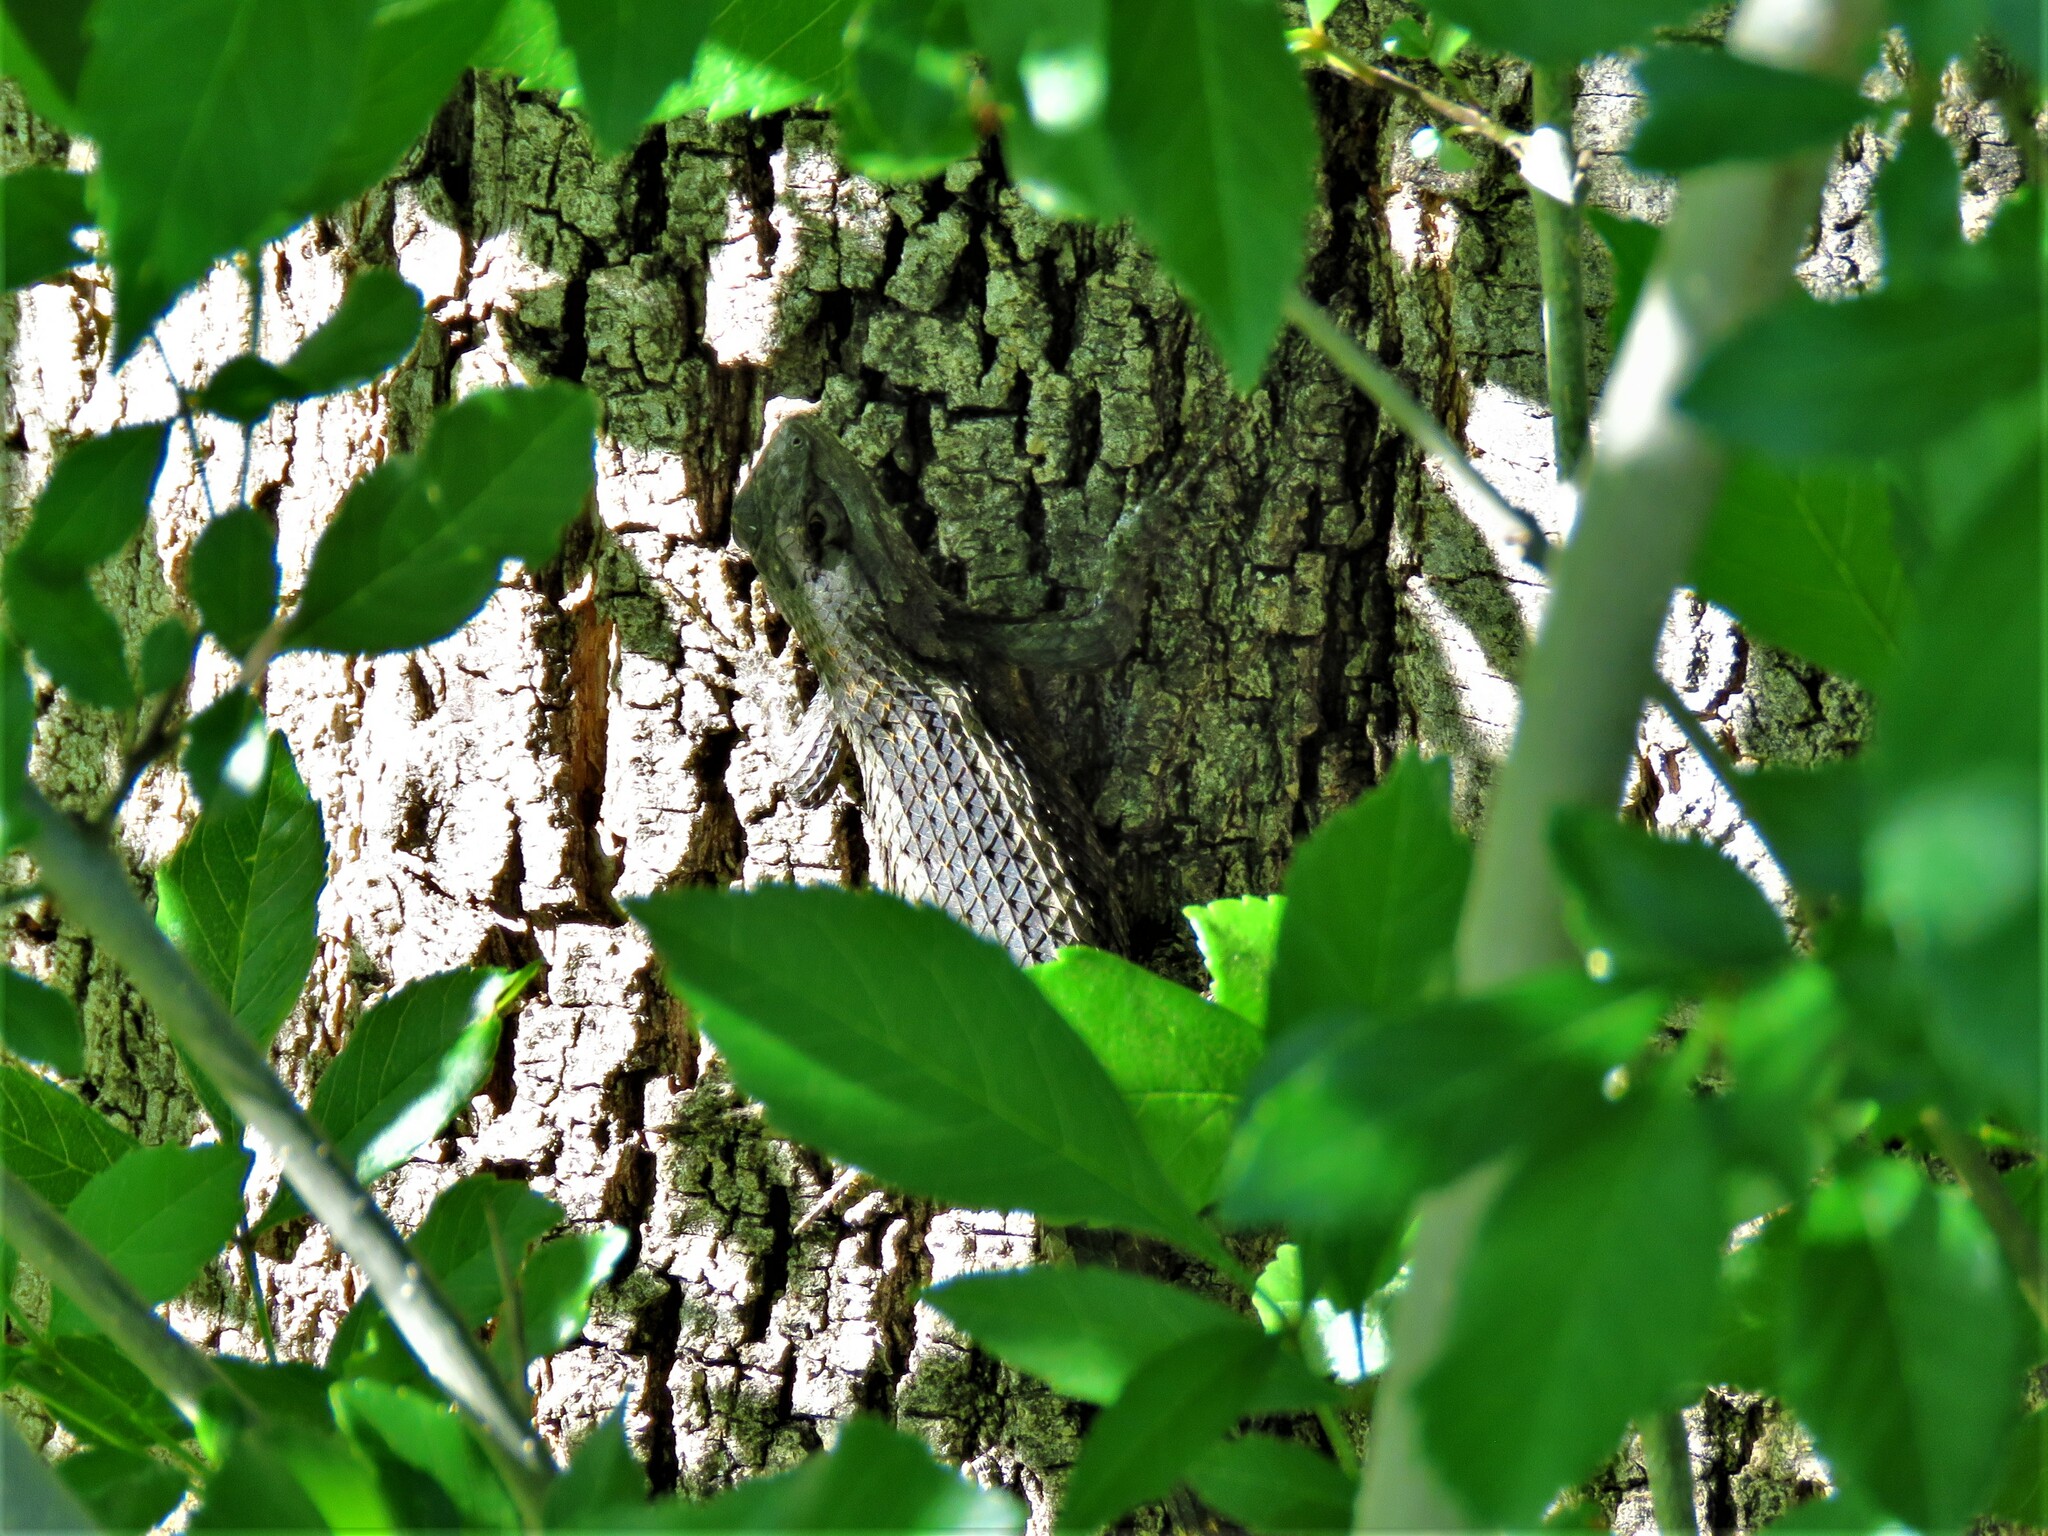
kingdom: Animalia
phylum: Chordata
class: Squamata
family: Phrynosomatidae
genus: Sceloporus
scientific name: Sceloporus olivaceus
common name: Texas spiny lizard
